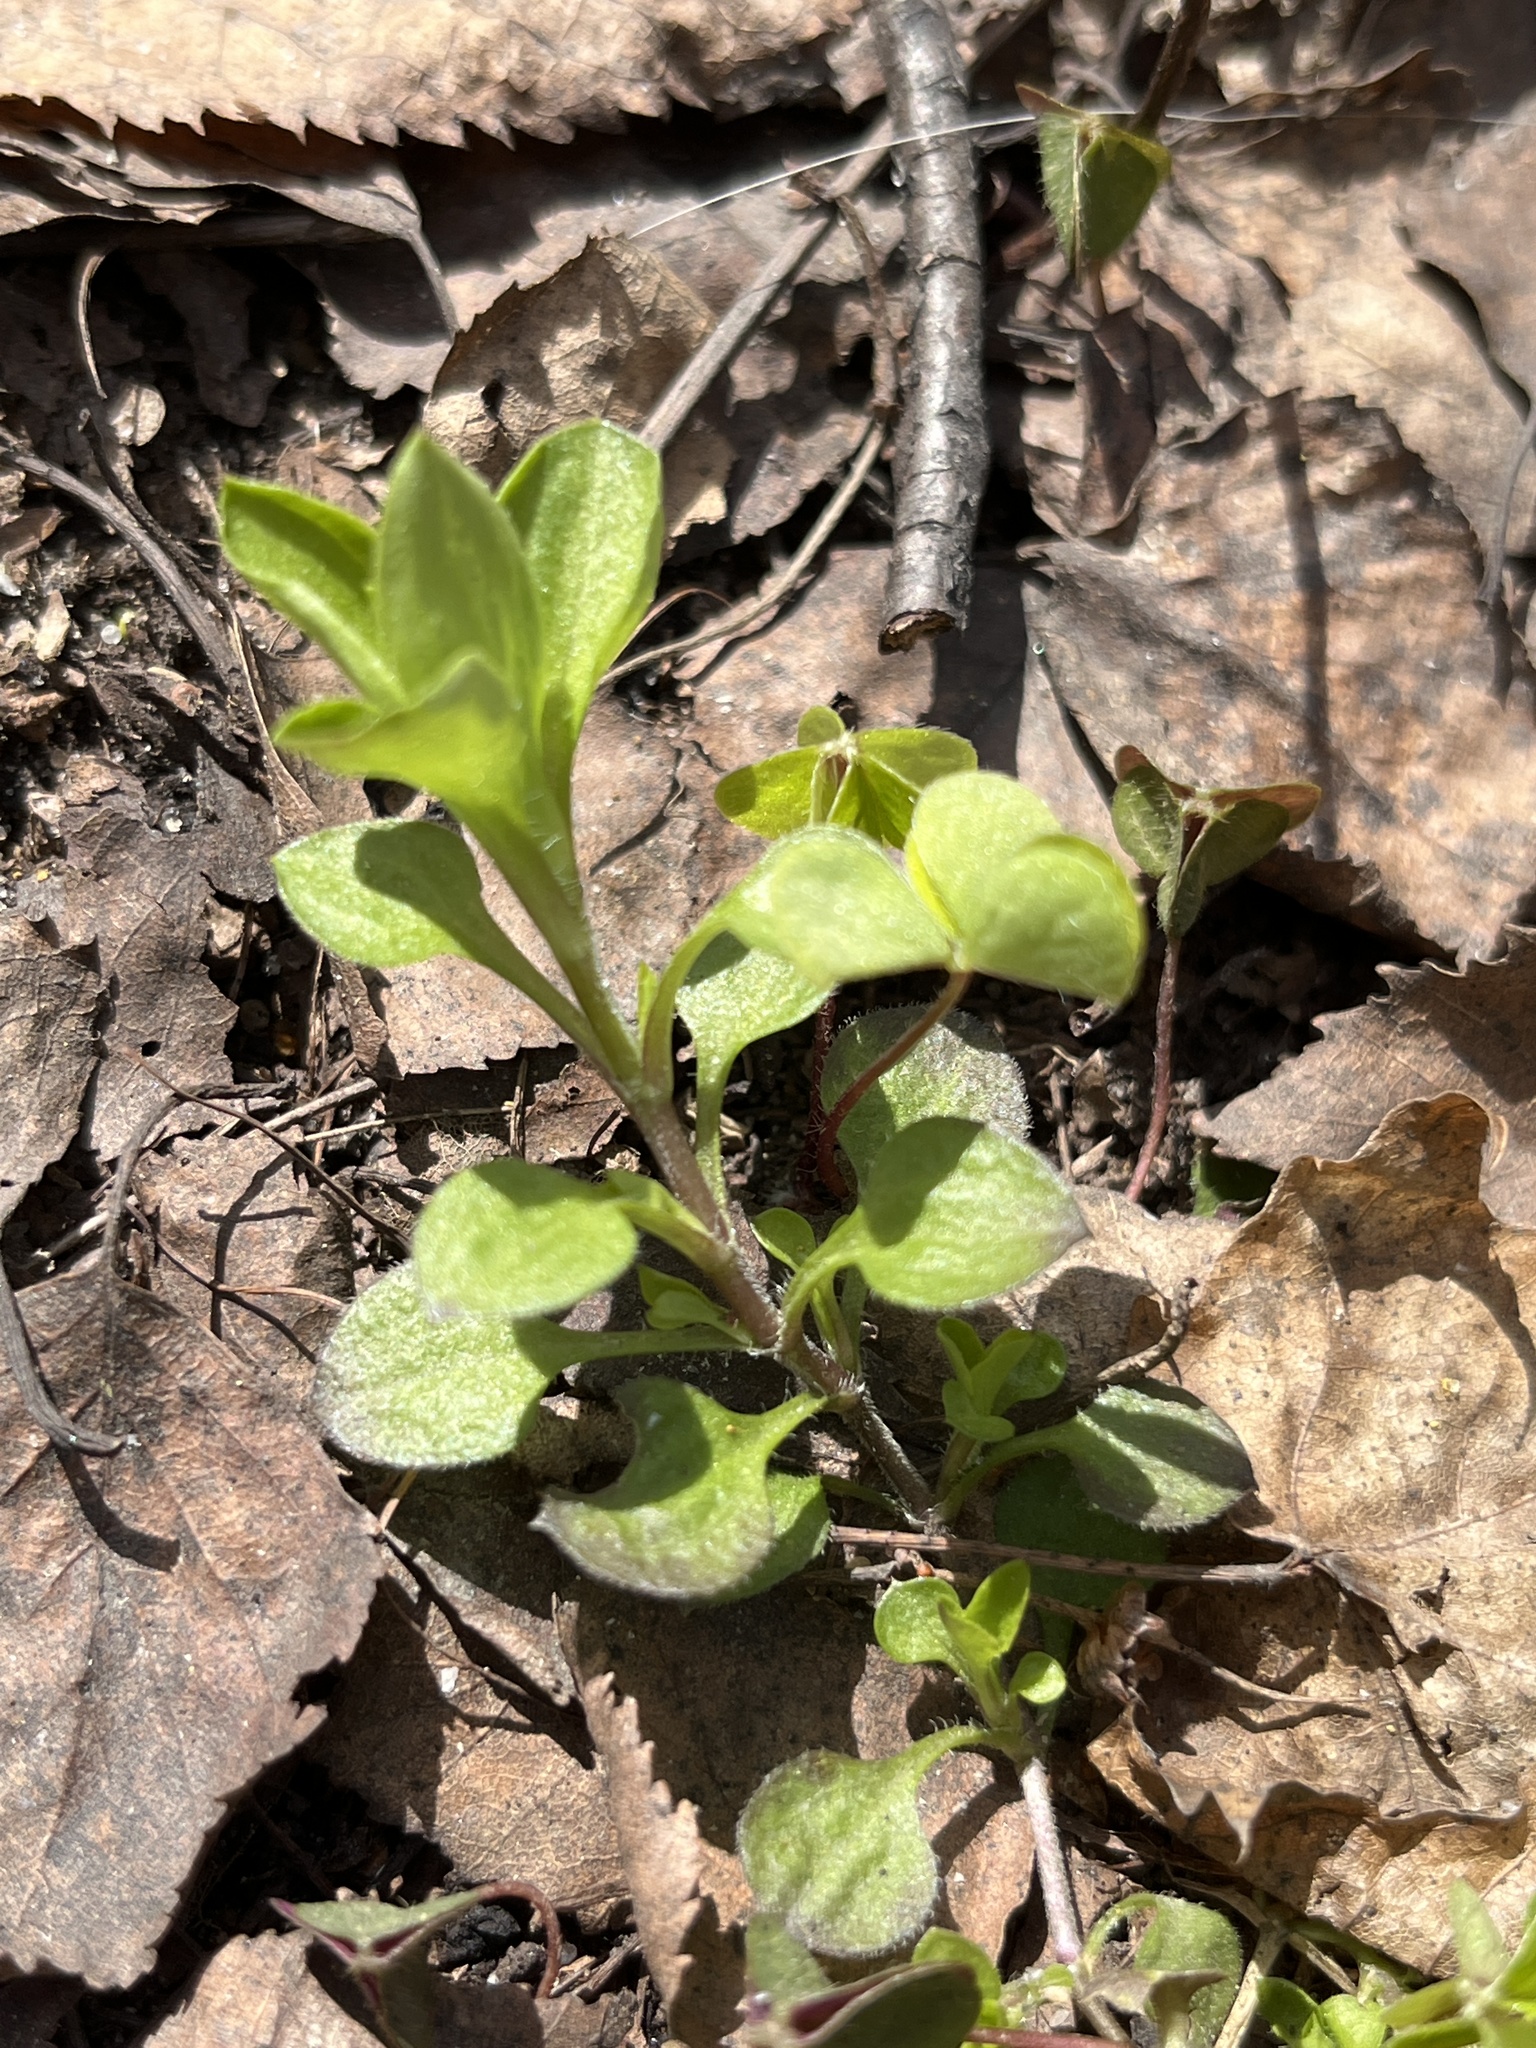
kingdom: Plantae
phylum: Tracheophyta
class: Magnoliopsida
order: Caryophyllales
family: Caryophyllaceae
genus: Moehringia
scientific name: Moehringia trinervia
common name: Three-nerved sandwort
